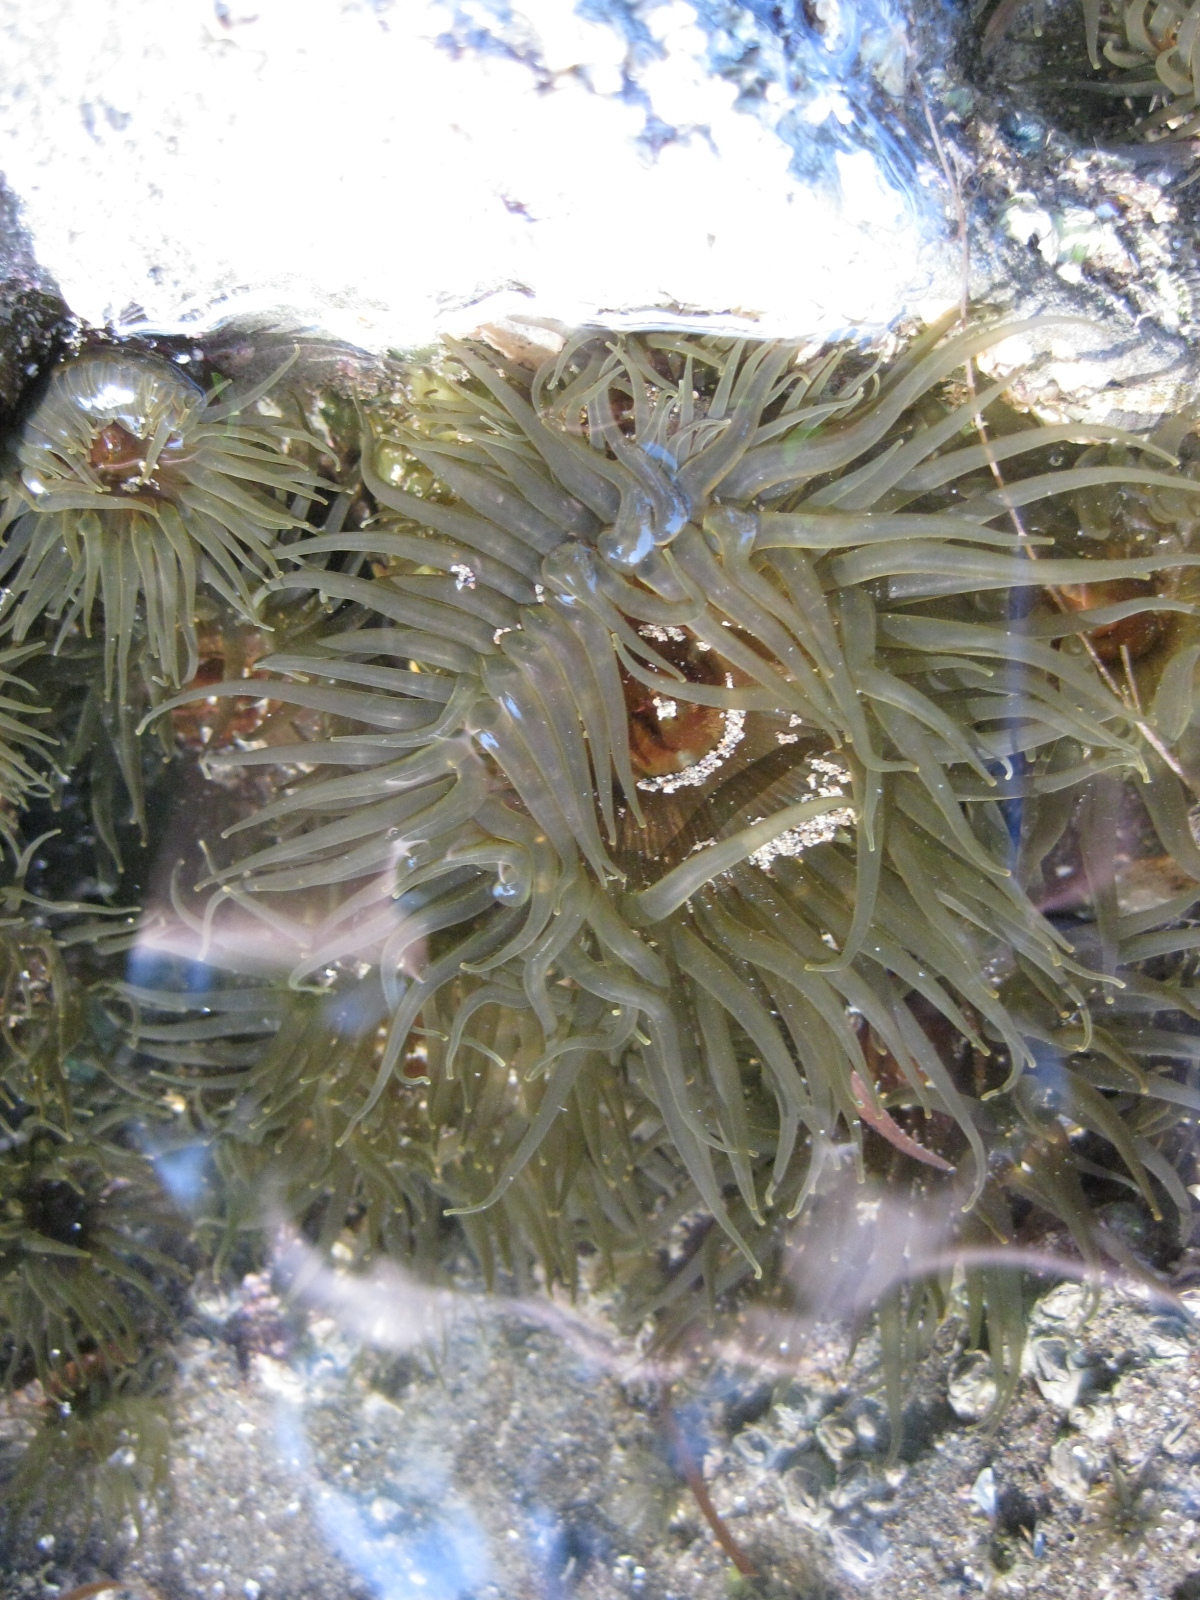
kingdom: Animalia
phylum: Cnidaria
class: Anthozoa
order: Actiniaria
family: Actiniidae
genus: Isactinia
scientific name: Isactinia olivacea
